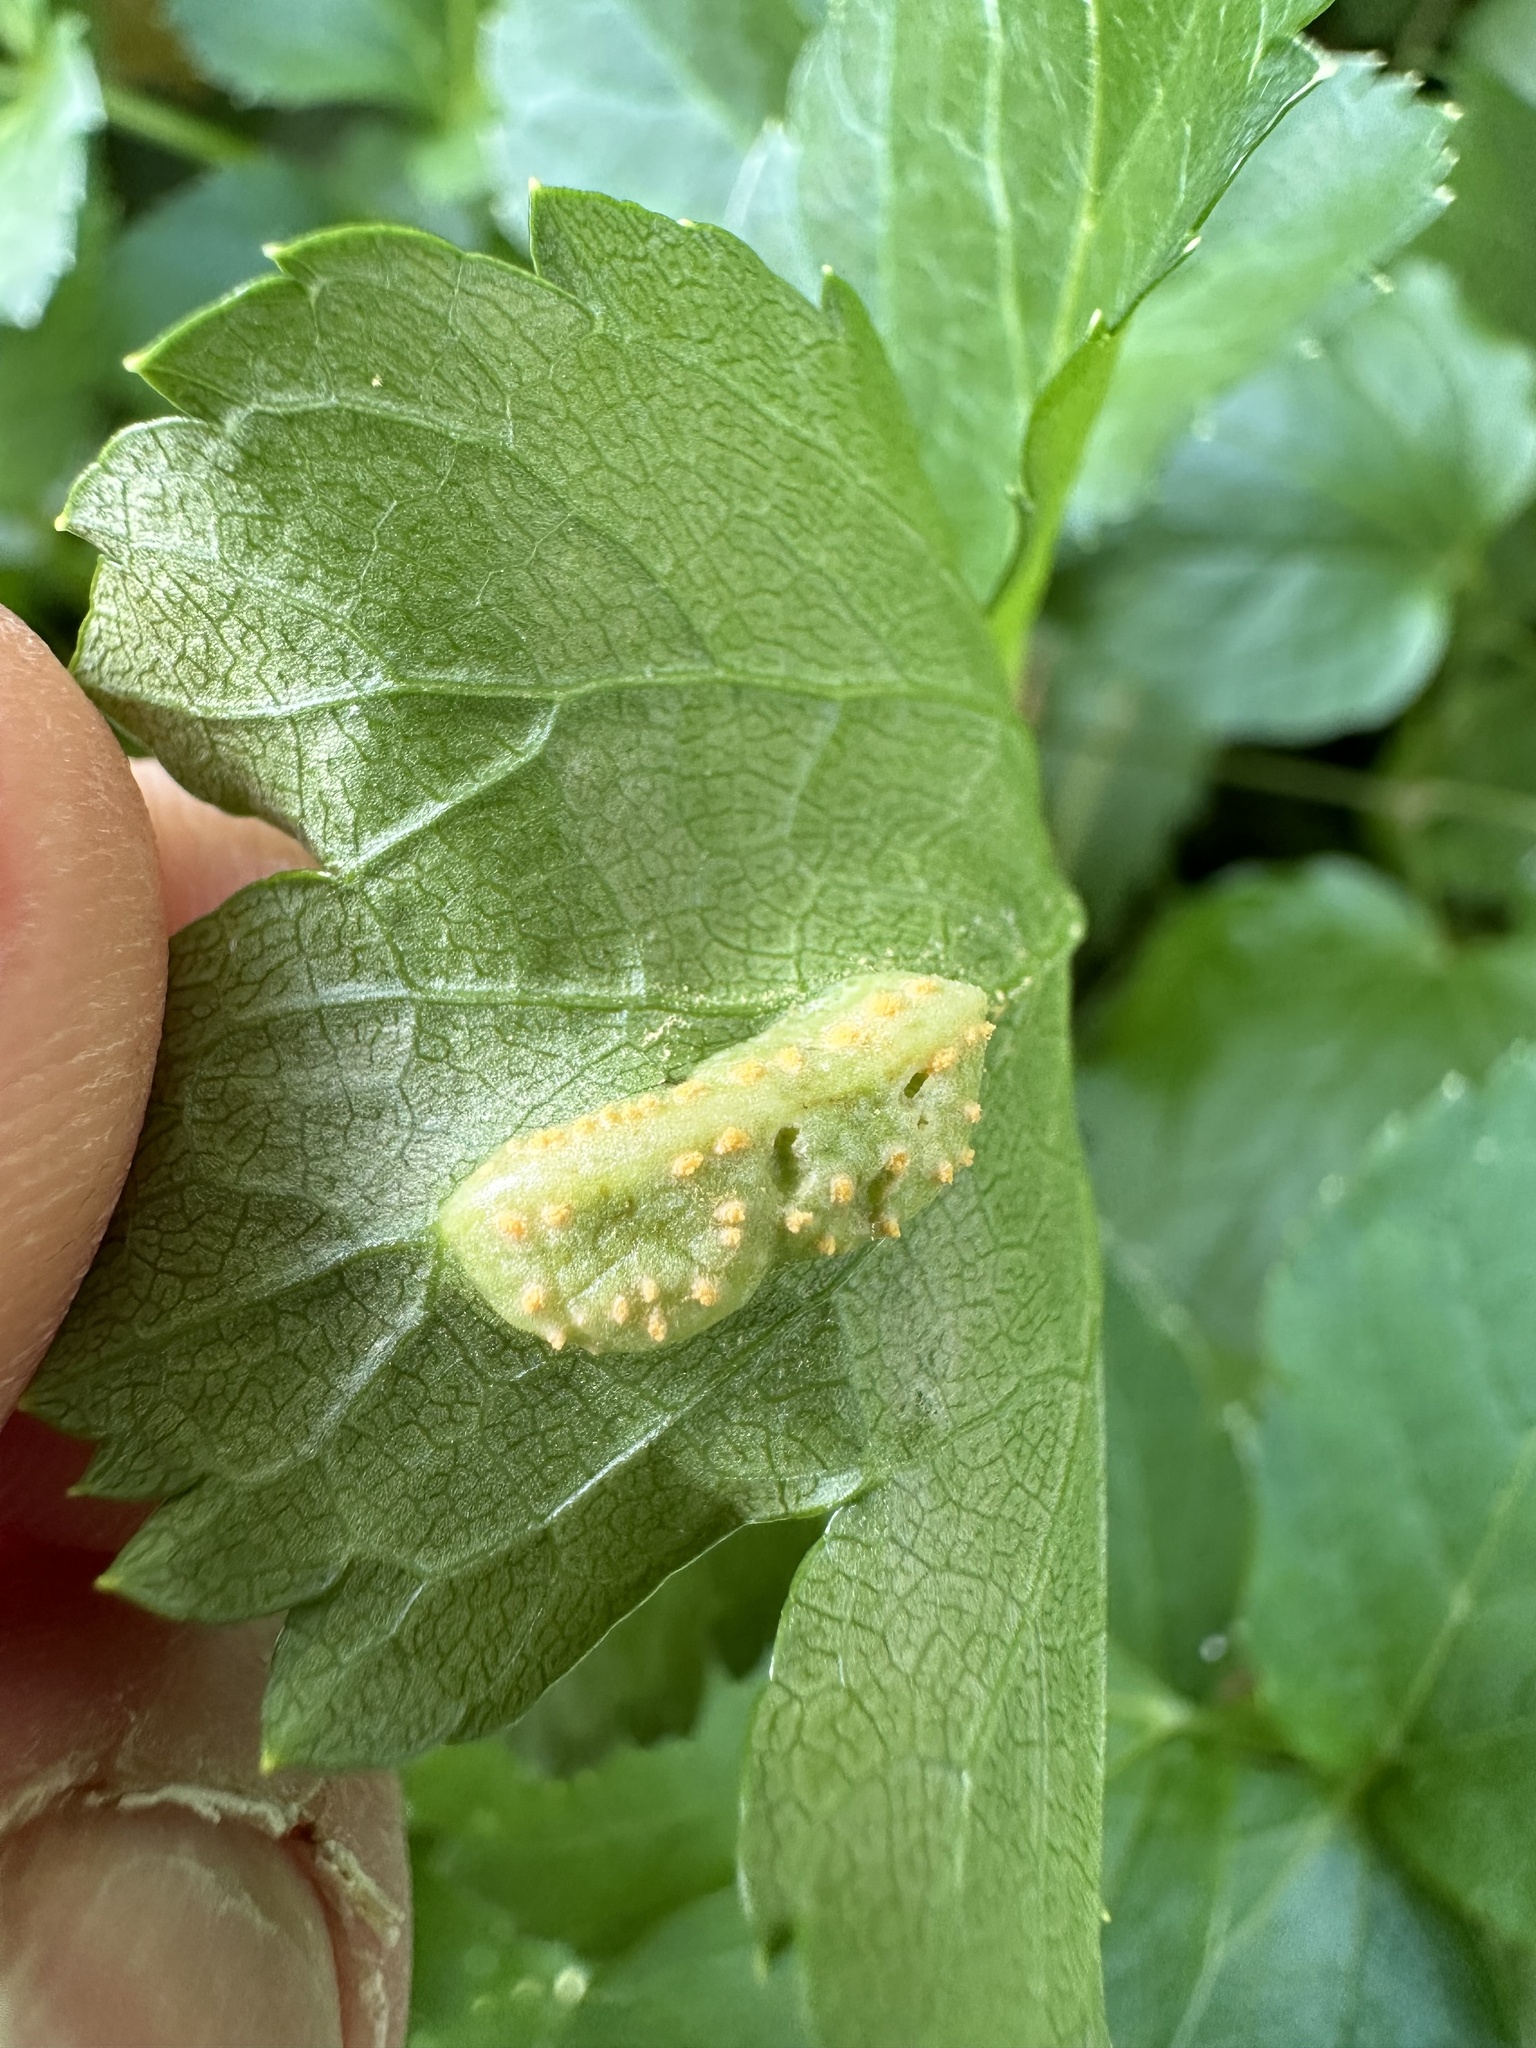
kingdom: Fungi
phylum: Basidiomycota
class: Pucciniomycetes
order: Pucciniales
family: Pucciniaceae
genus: Puccinia
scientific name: Puccinia smyrnii
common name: Alexanders rust
